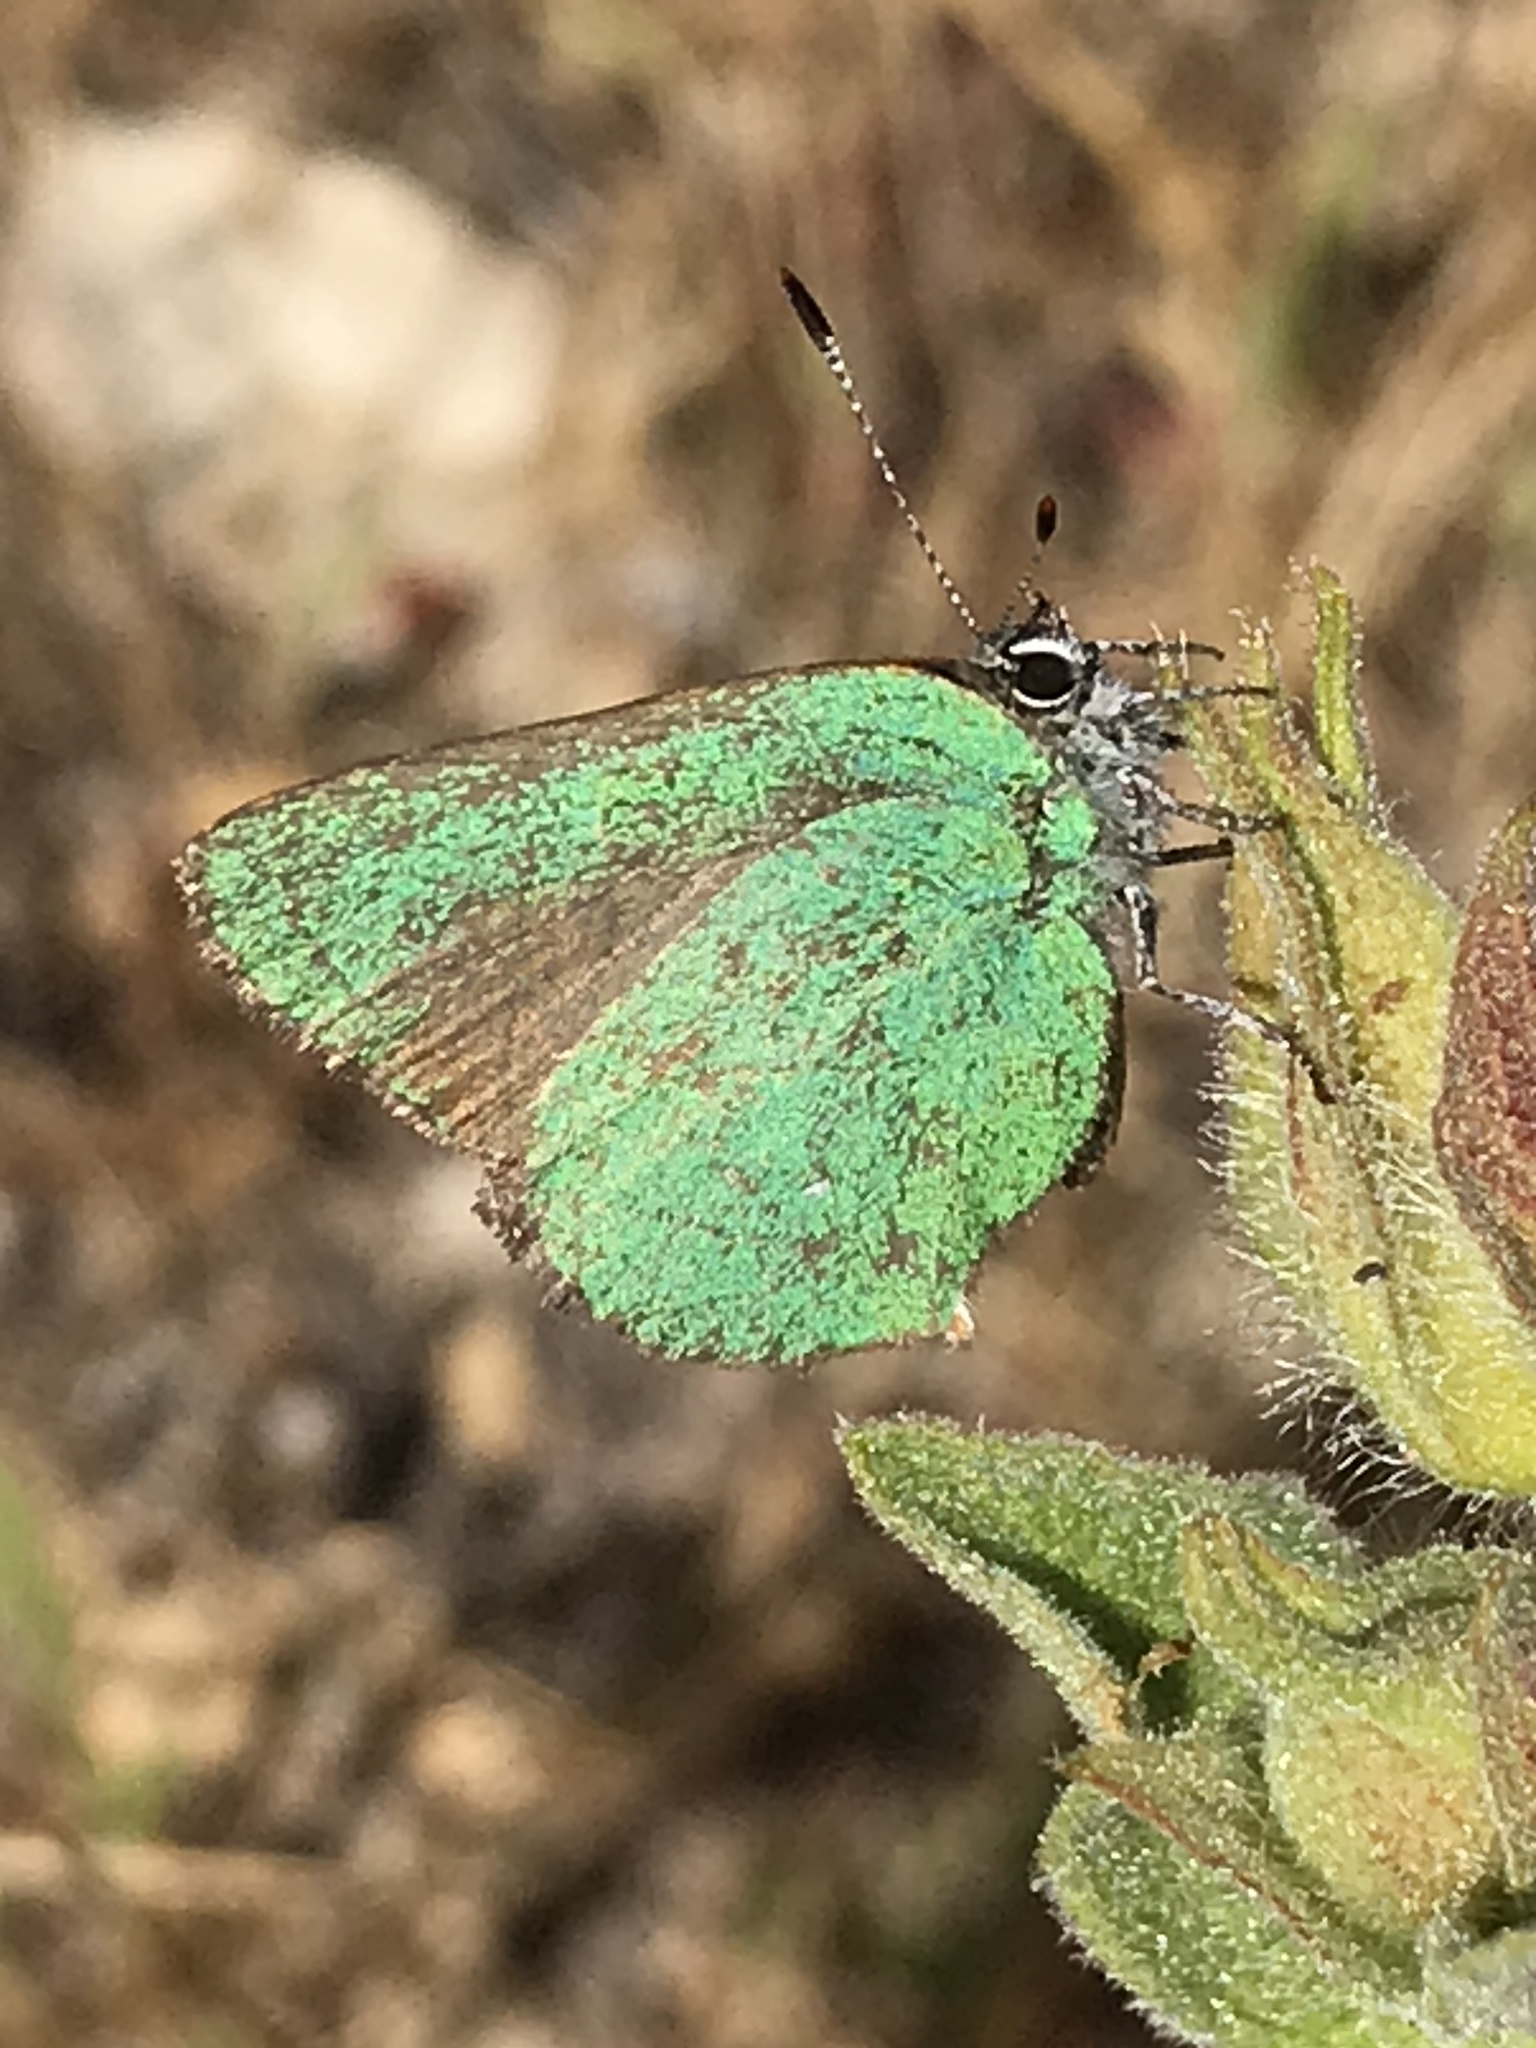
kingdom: Animalia
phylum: Arthropoda
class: Insecta
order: Lepidoptera
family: Lycaenidae
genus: Callophrys
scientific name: Callophrys dumetorum
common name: Bramble hairstreak
